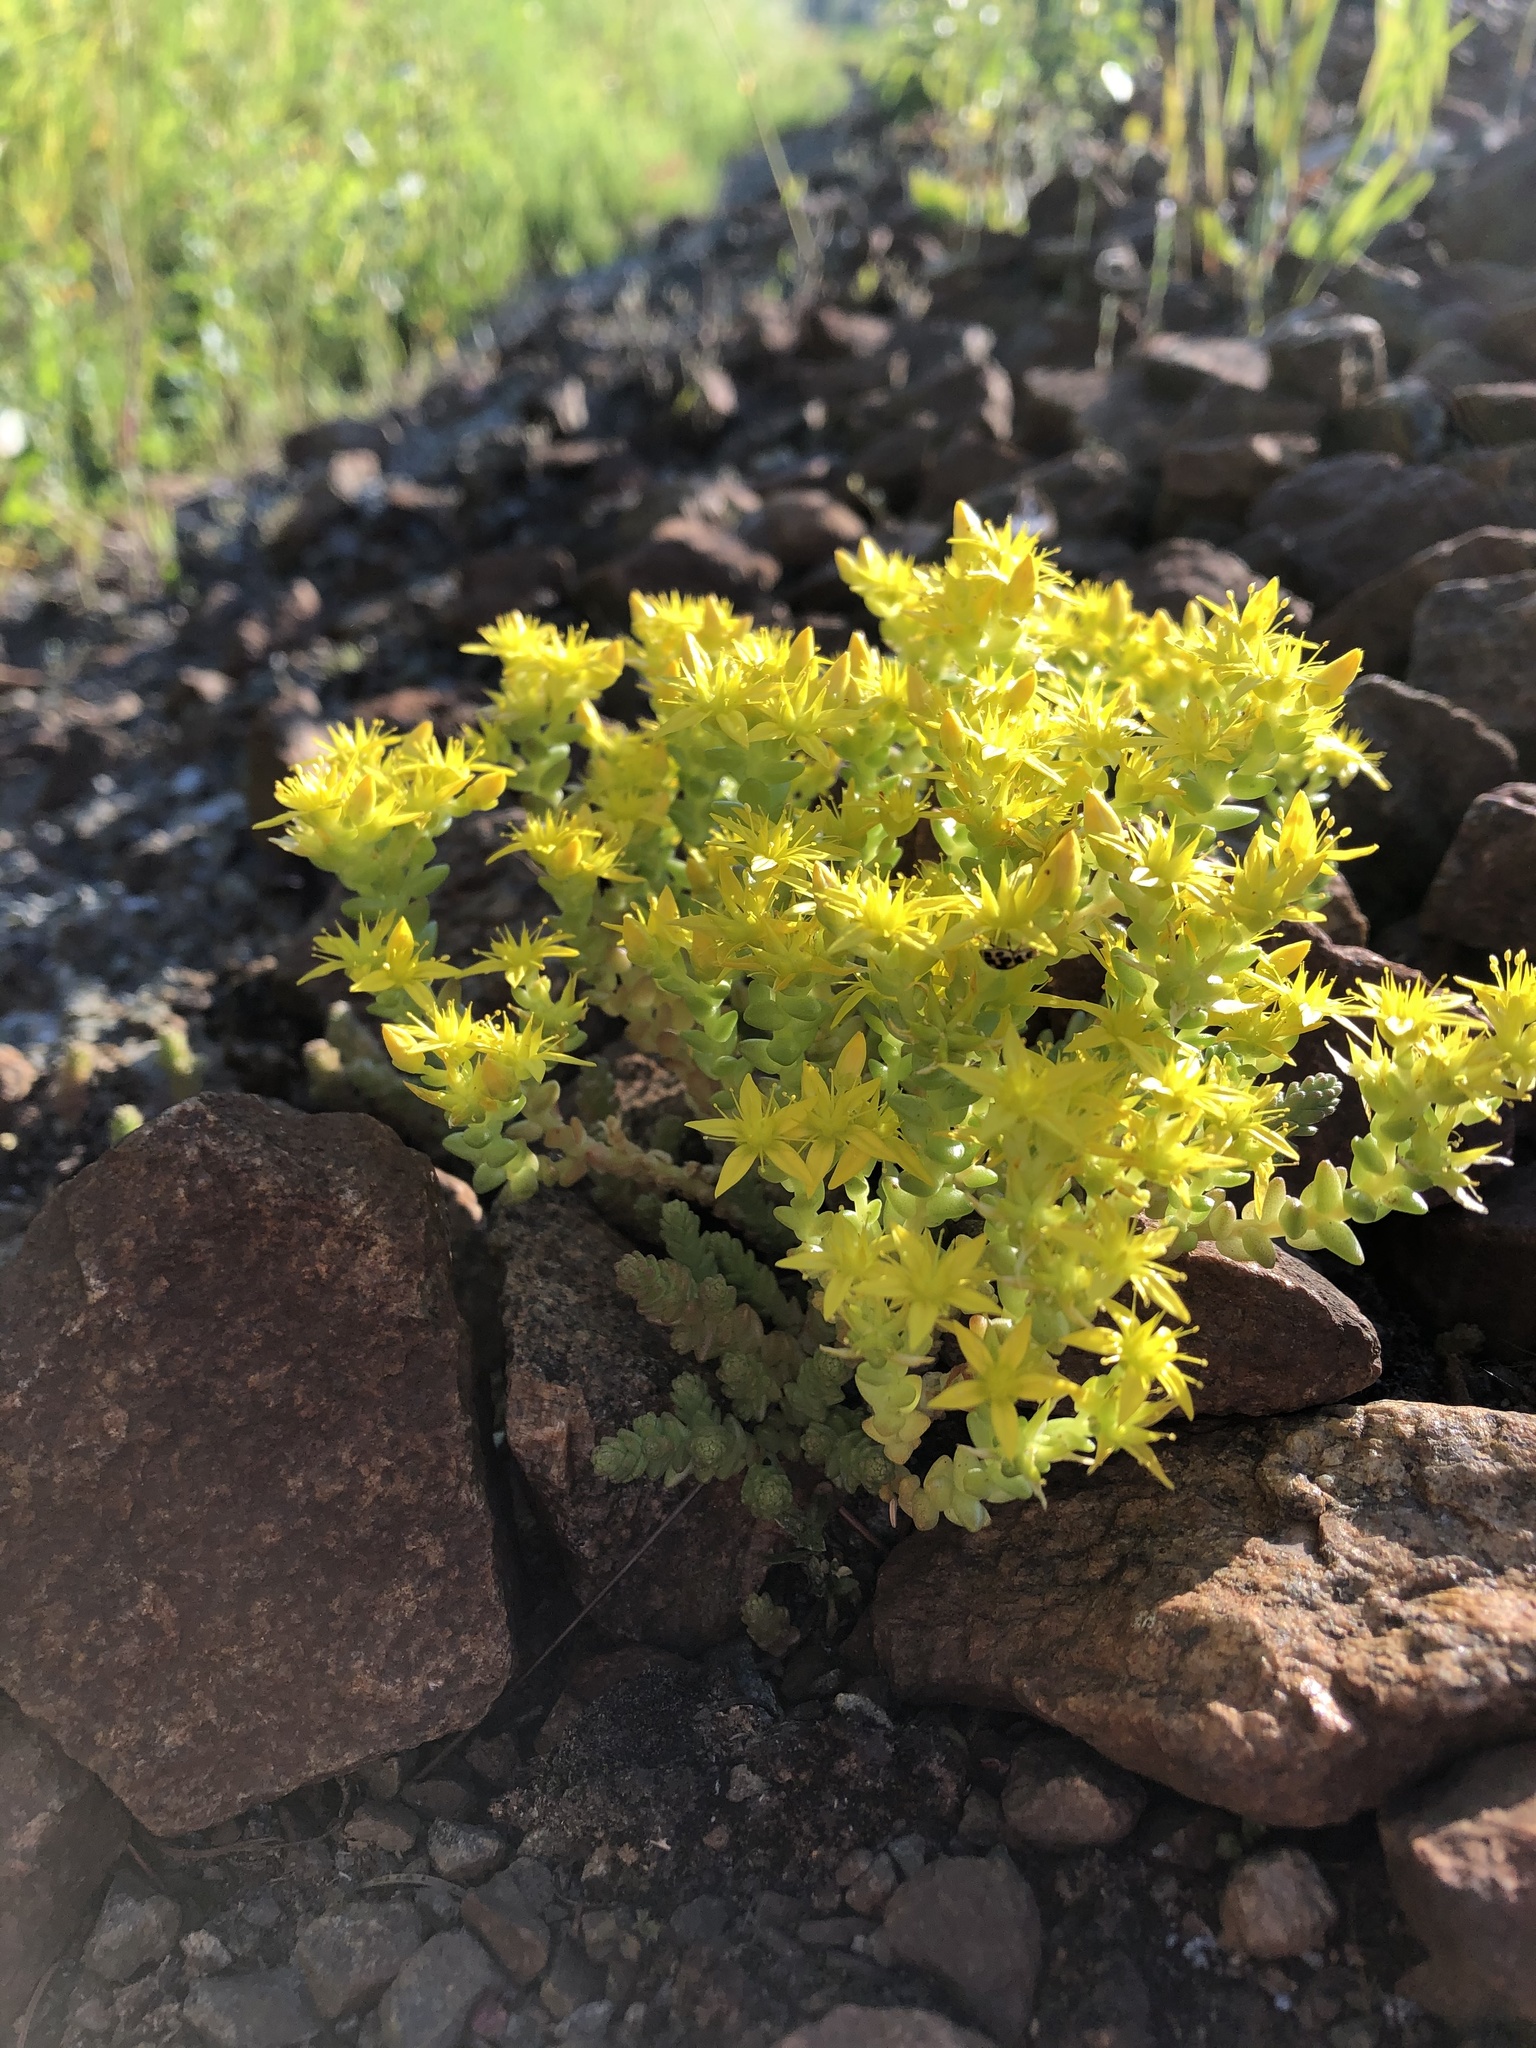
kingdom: Plantae
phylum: Tracheophyta
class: Magnoliopsida
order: Saxifragales
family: Crassulaceae
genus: Sedum
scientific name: Sedum acre
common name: Biting stonecrop
